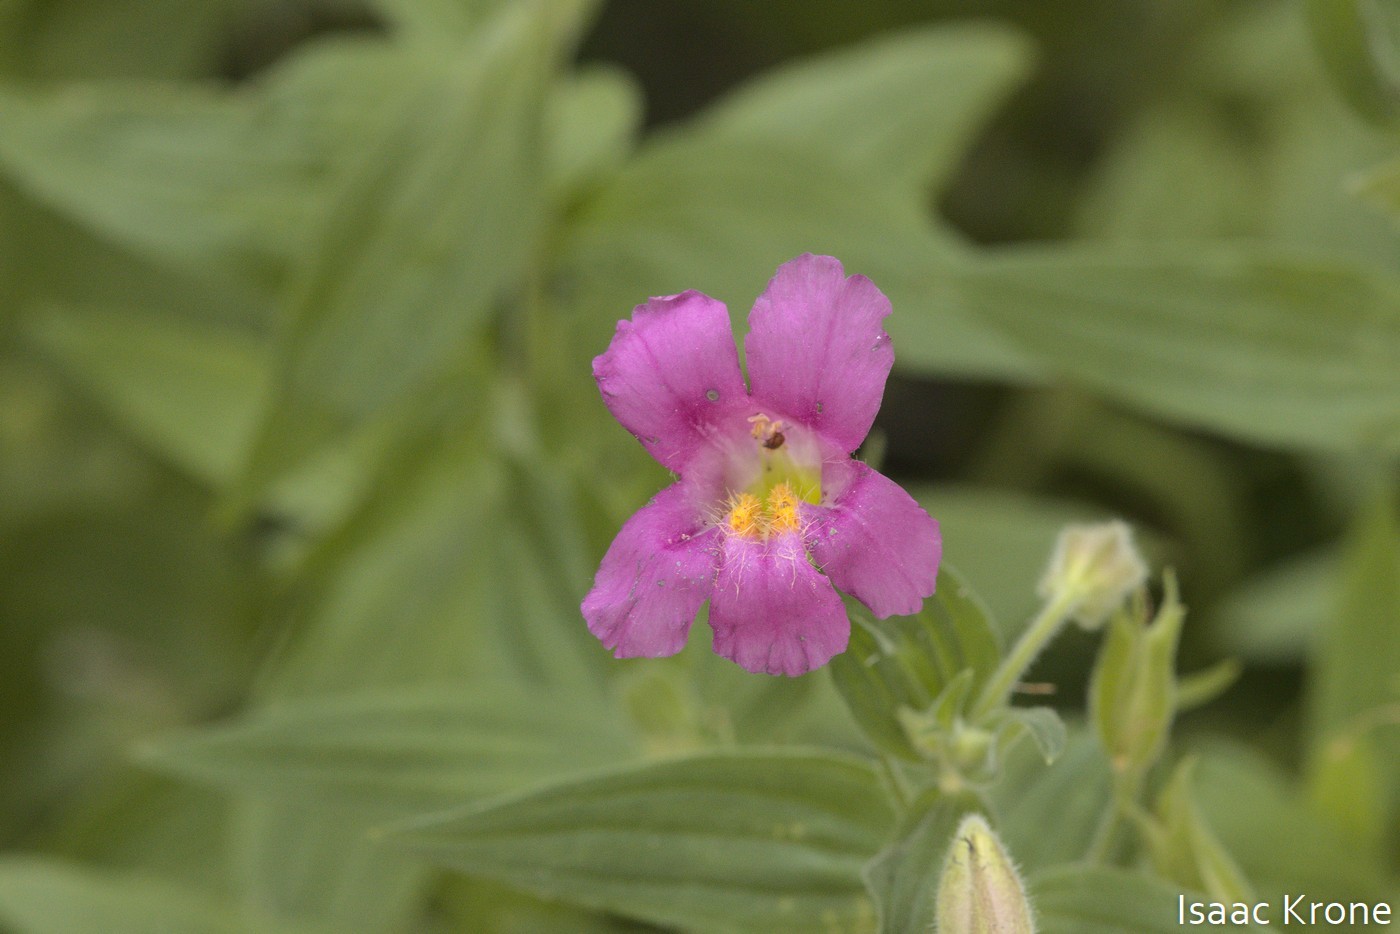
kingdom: Plantae
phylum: Tracheophyta
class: Magnoliopsida
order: Lamiales
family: Phrymaceae
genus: Erythranthe
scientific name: Erythranthe lewisii
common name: Lewis's monkey-flower
